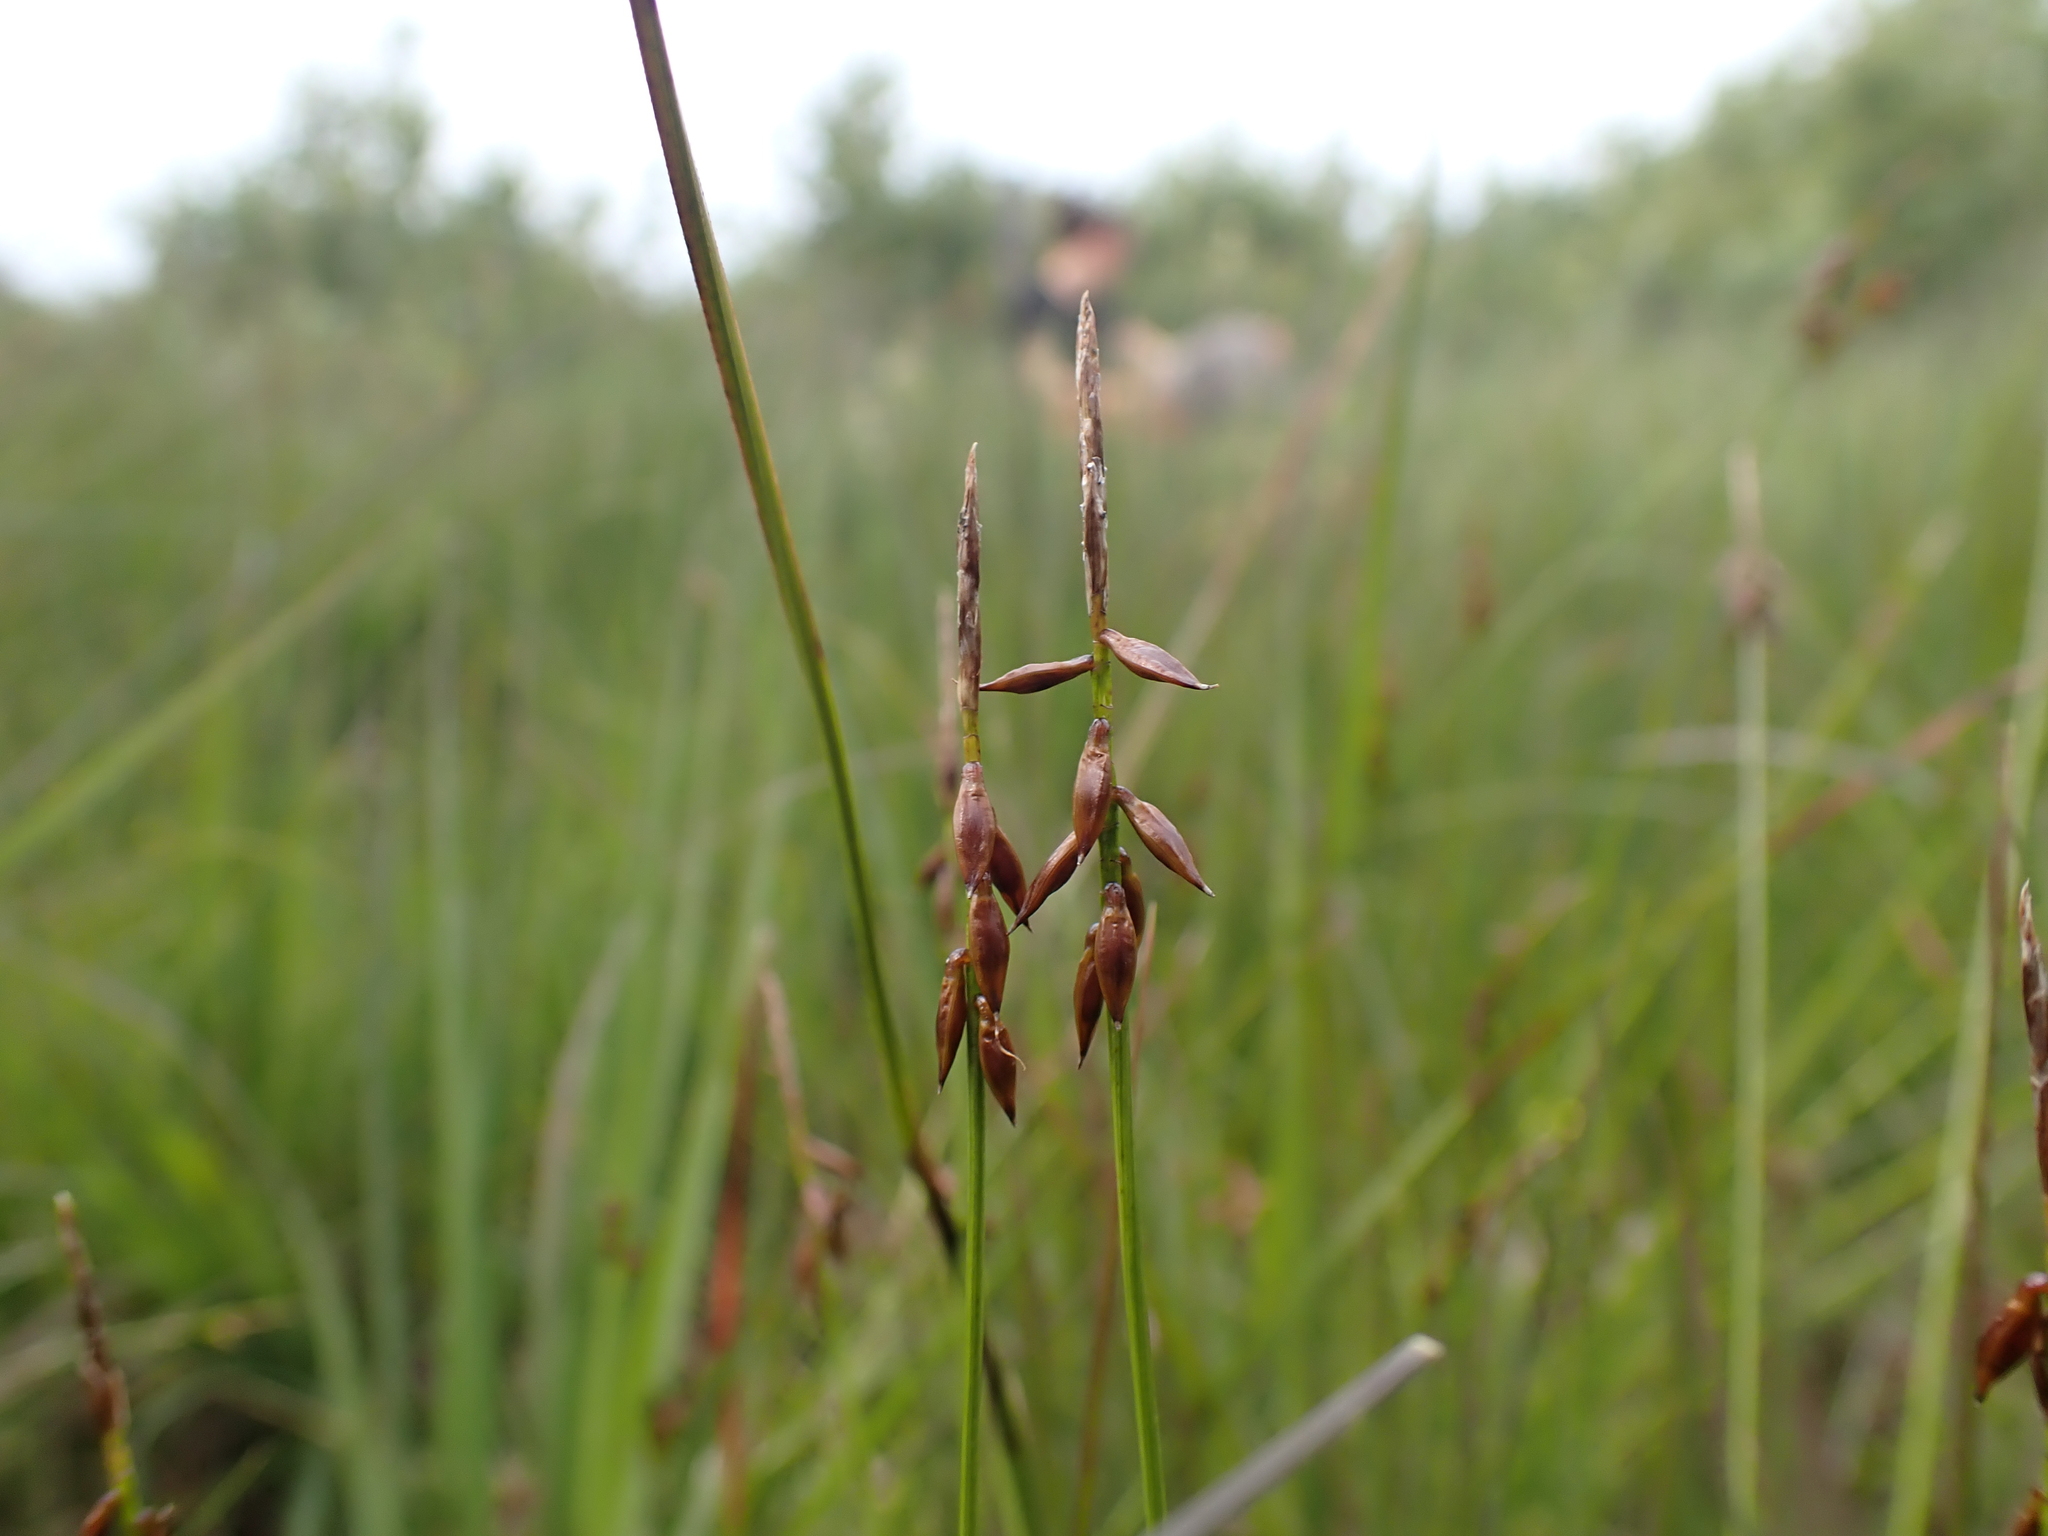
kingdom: Plantae
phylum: Tracheophyta
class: Liliopsida
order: Poales
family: Cyperaceae
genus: Carex
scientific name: Carex pulicaris
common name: Flea sedge
